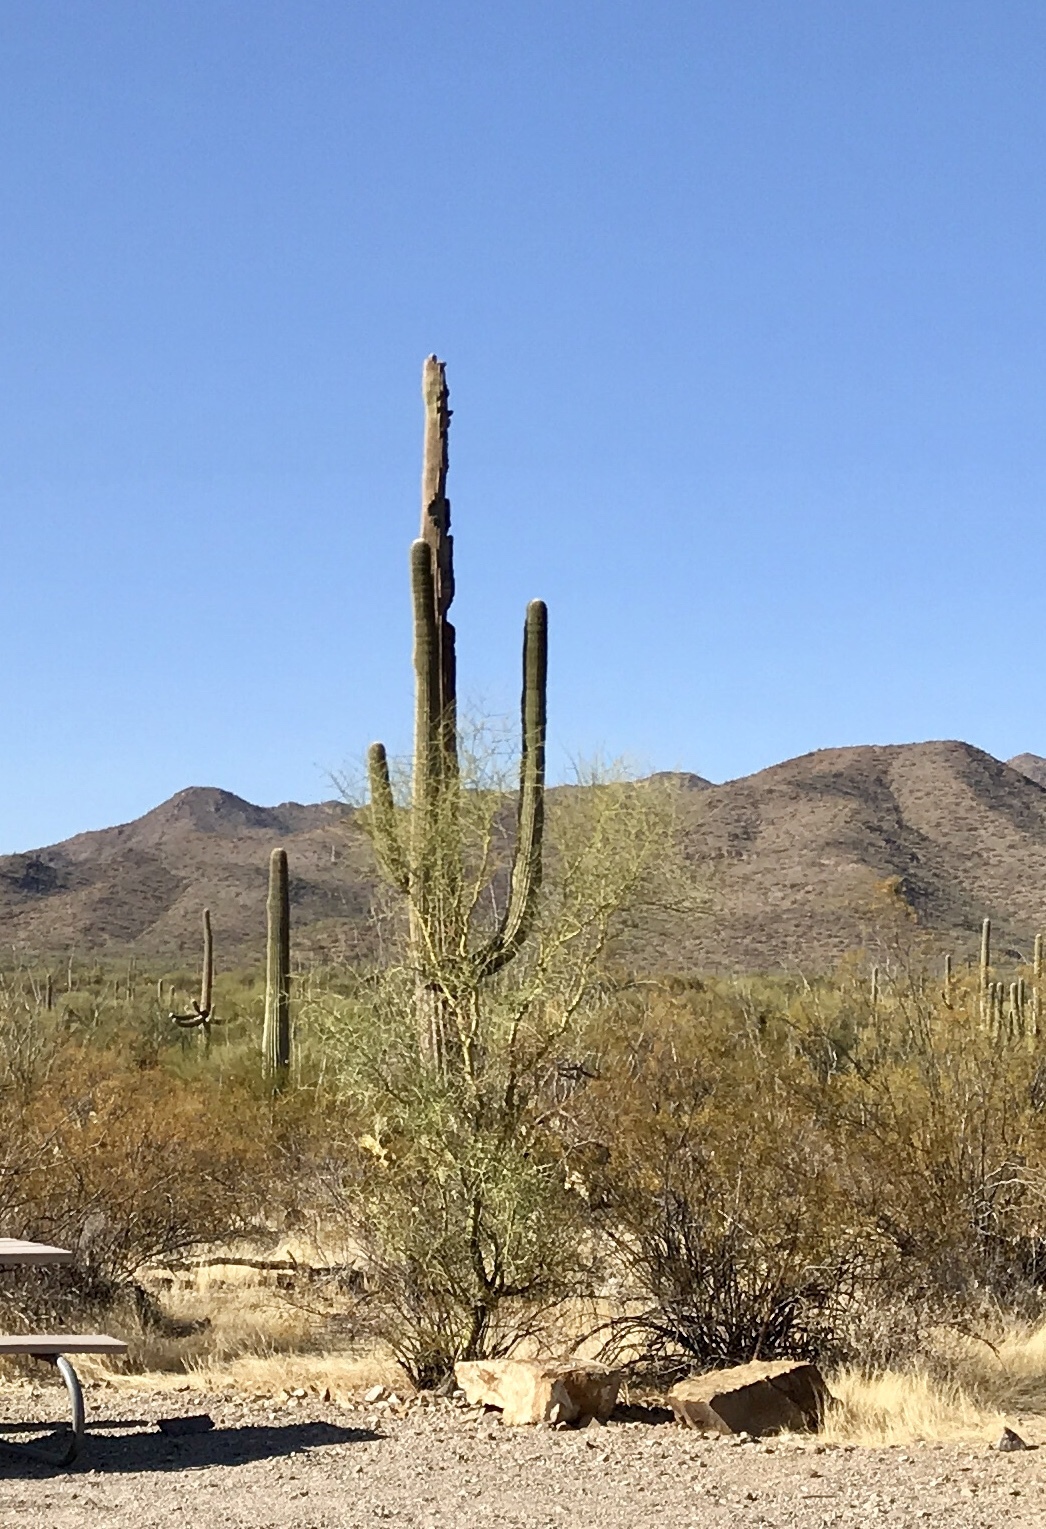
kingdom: Plantae
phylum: Tracheophyta
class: Magnoliopsida
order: Caryophyllales
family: Cactaceae
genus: Carnegiea
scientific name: Carnegiea gigantea
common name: Saguaro
